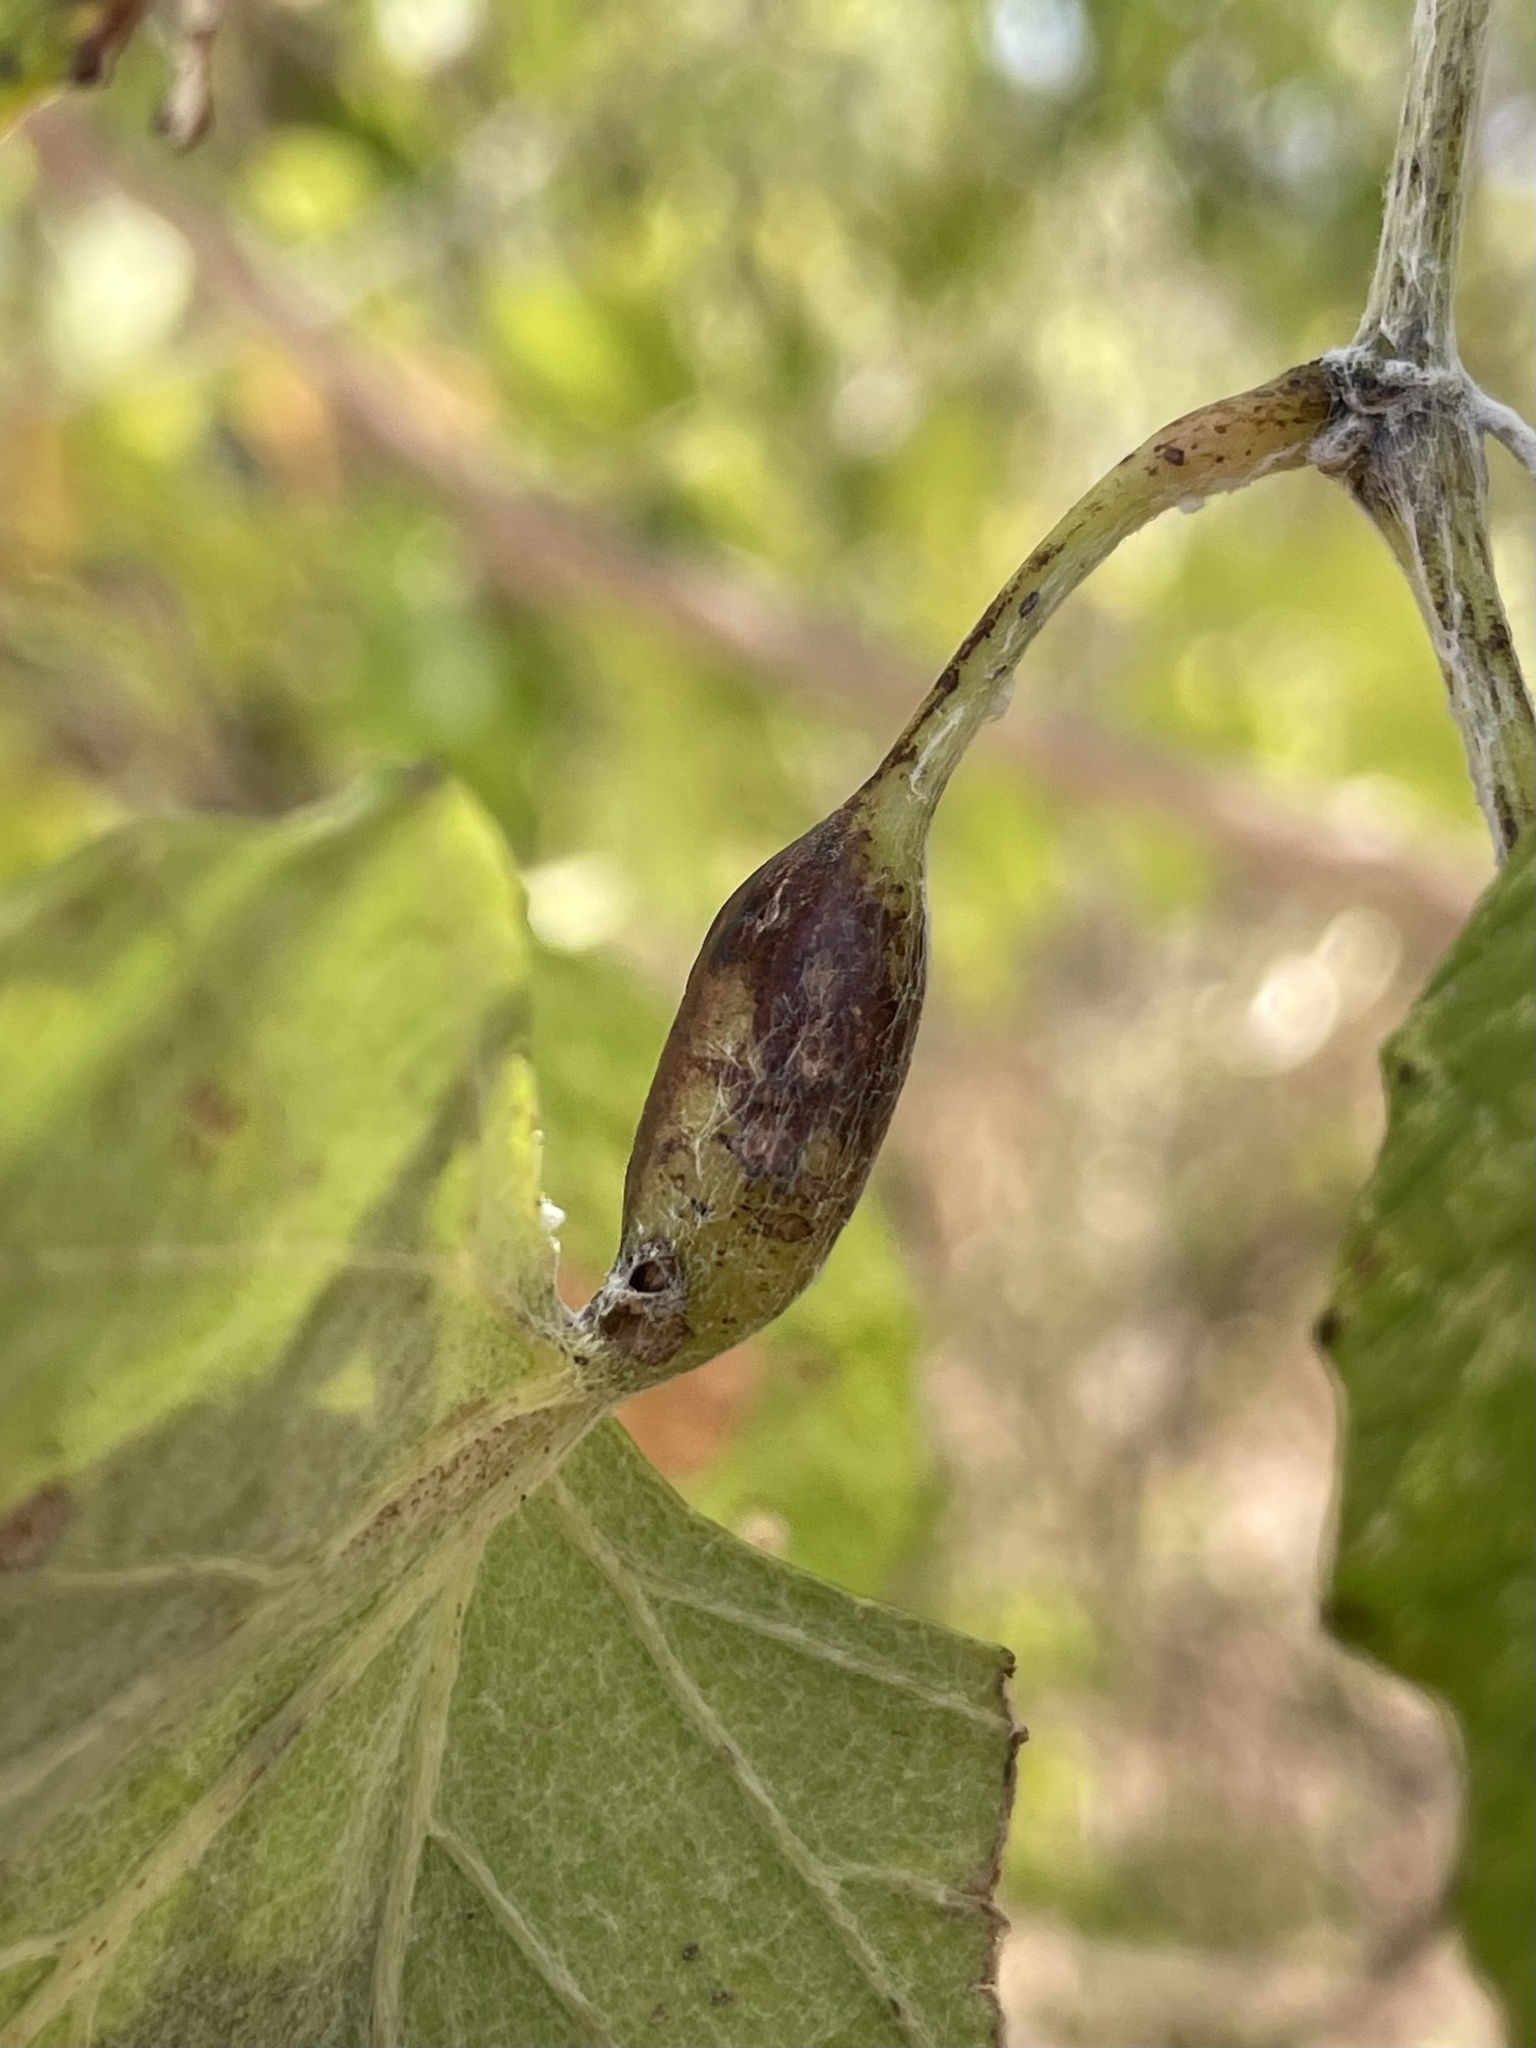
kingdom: Animalia
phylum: Arthropoda
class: Insecta
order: Diptera
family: Cecidomyiidae
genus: Vitisiella
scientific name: Vitisiella brevicauda
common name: Grape tumid gallmaker midge
